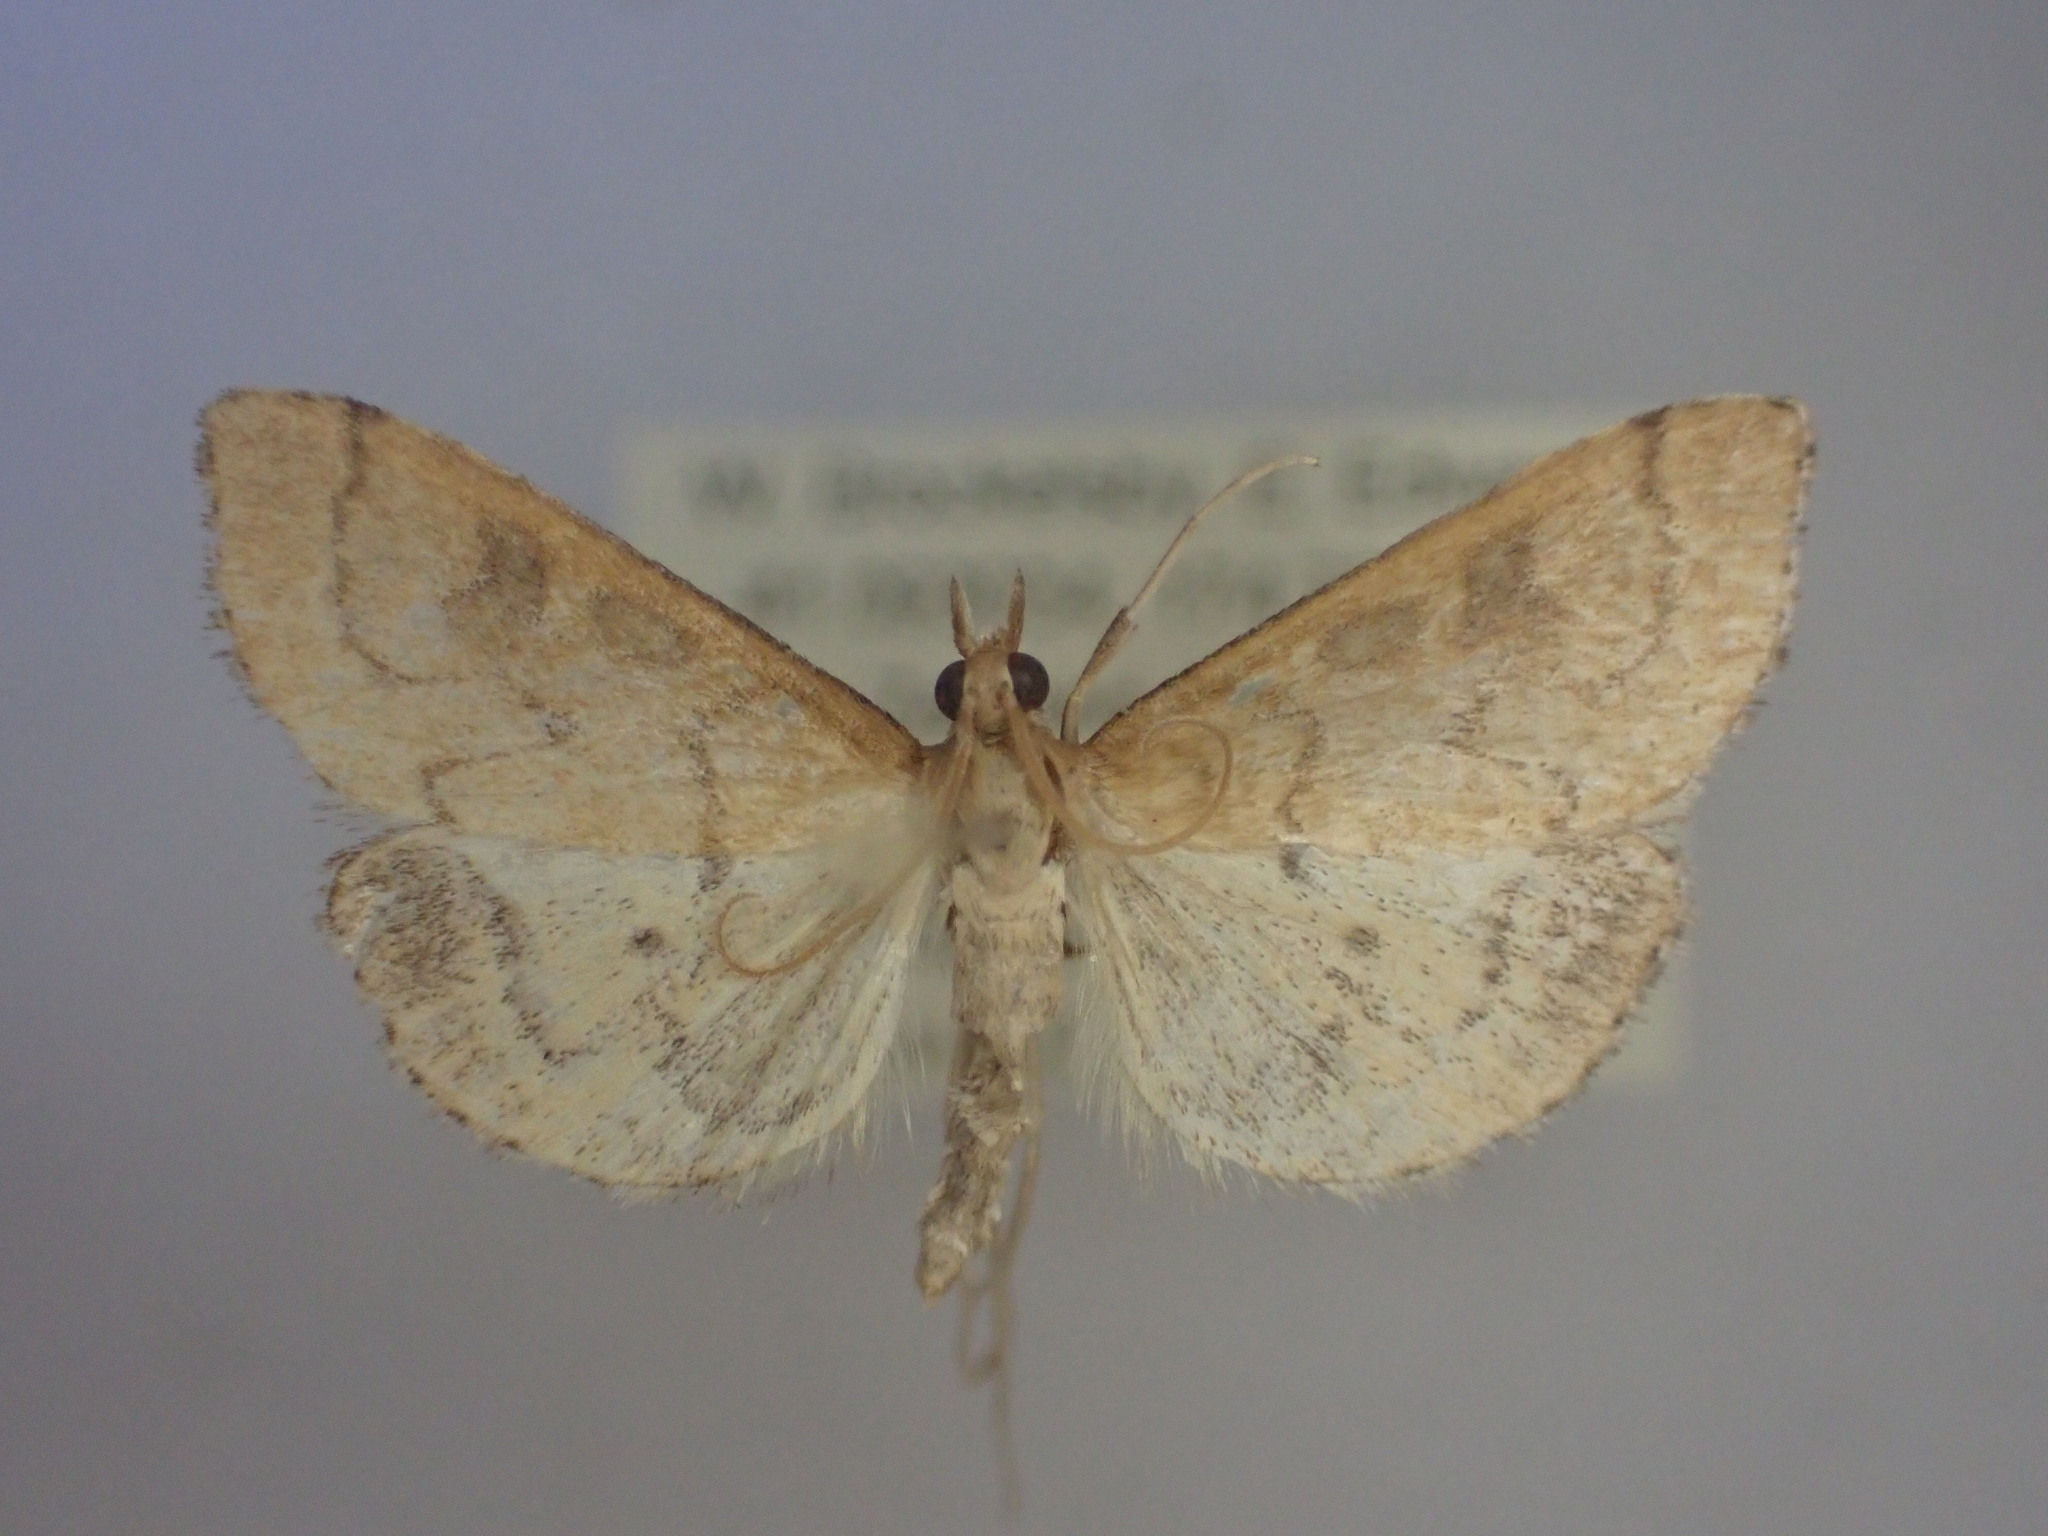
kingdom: Animalia
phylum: Arthropoda
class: Insecta
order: Lepidoptera
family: Crambidae
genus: Udea
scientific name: Udea Mnesictena flavidalis
